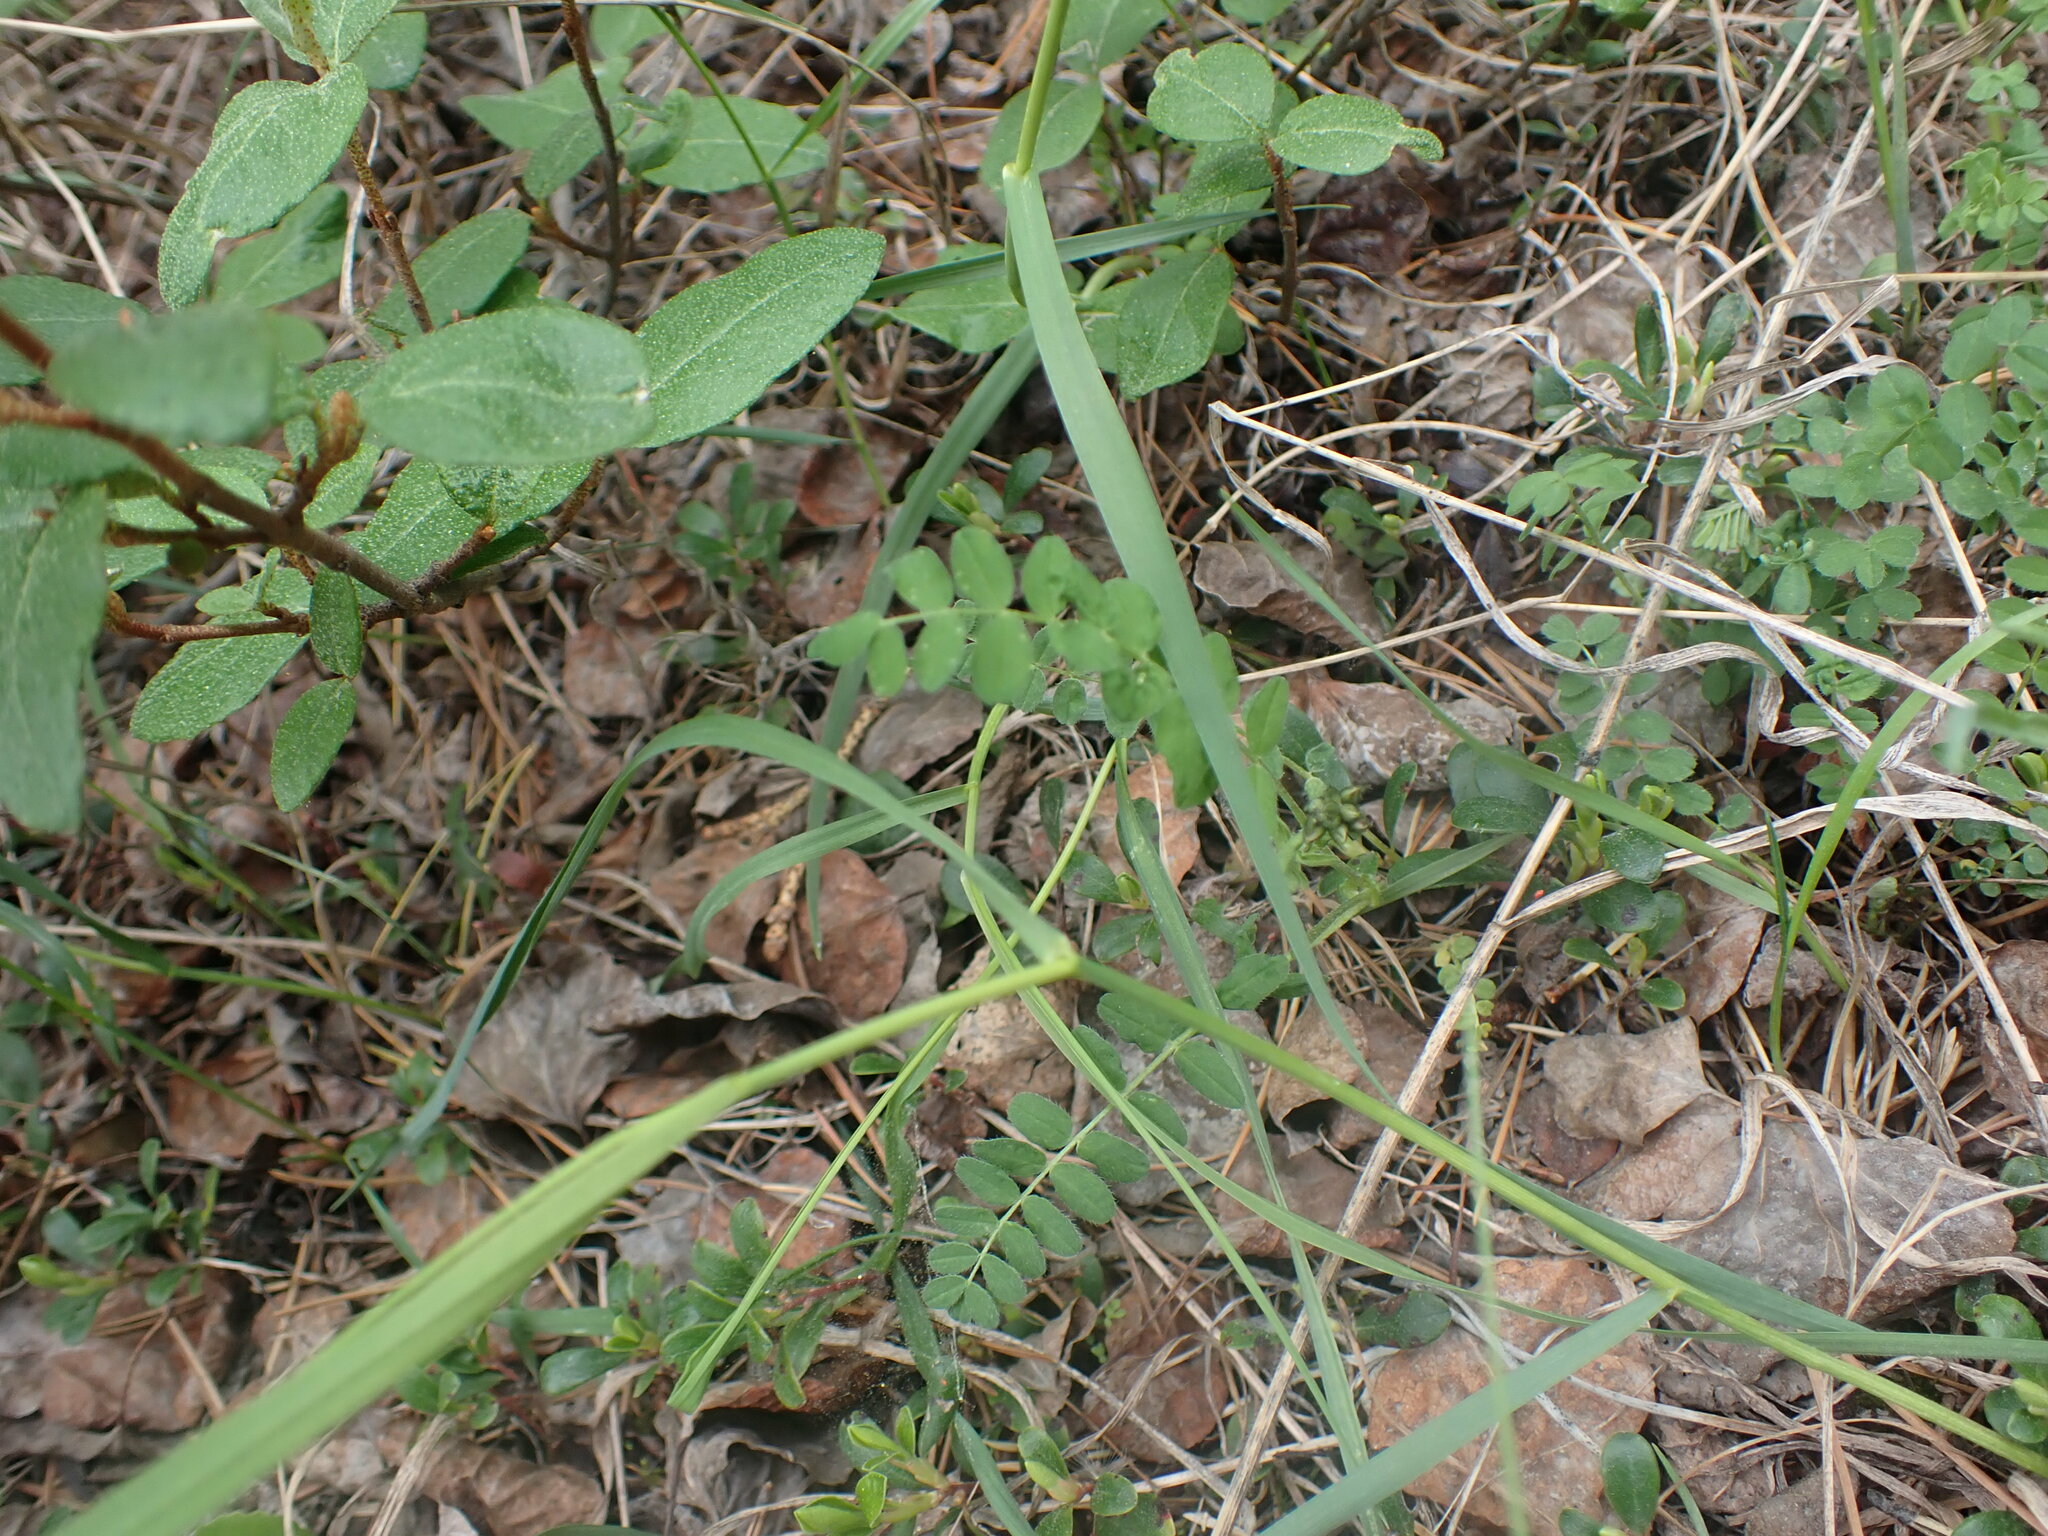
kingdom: Plantae
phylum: Tracheophyta
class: Magnoliopsida
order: Fabales
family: Fabaceae
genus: Astragalus
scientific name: Astragalus alpinus
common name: Alpine milk-vetch
